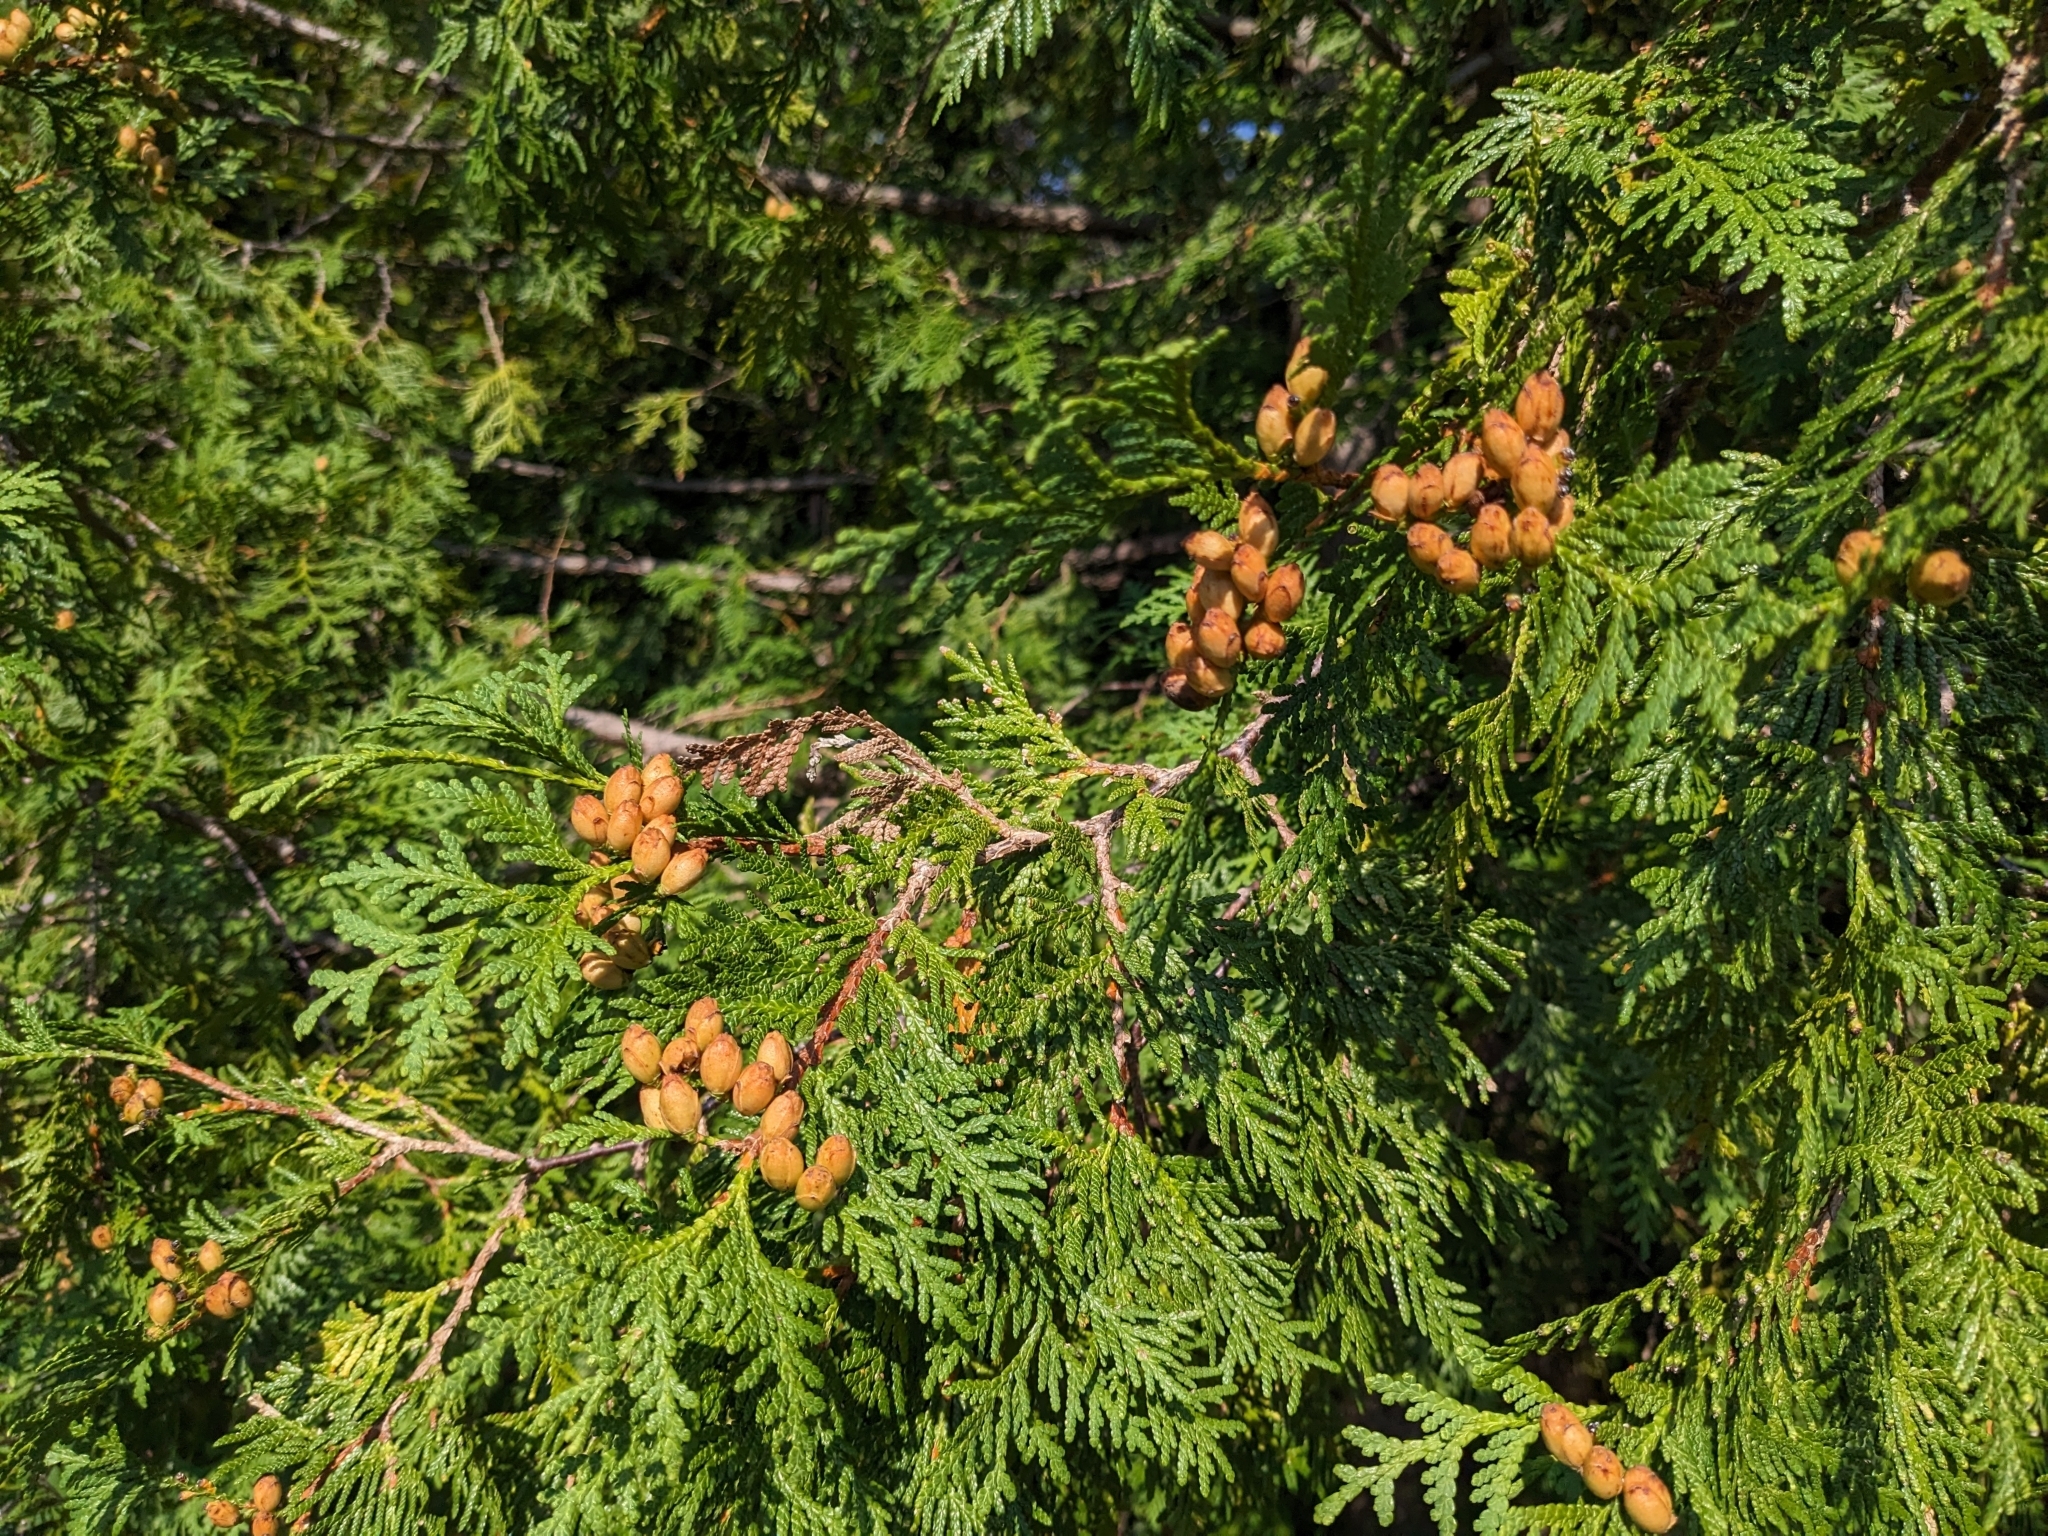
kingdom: Plantae
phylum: Tracheophyta
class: Pinopsida
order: Pinales
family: Cupressaceae
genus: Thuja
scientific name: Thuja occidentalis
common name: Northern white-cedar
